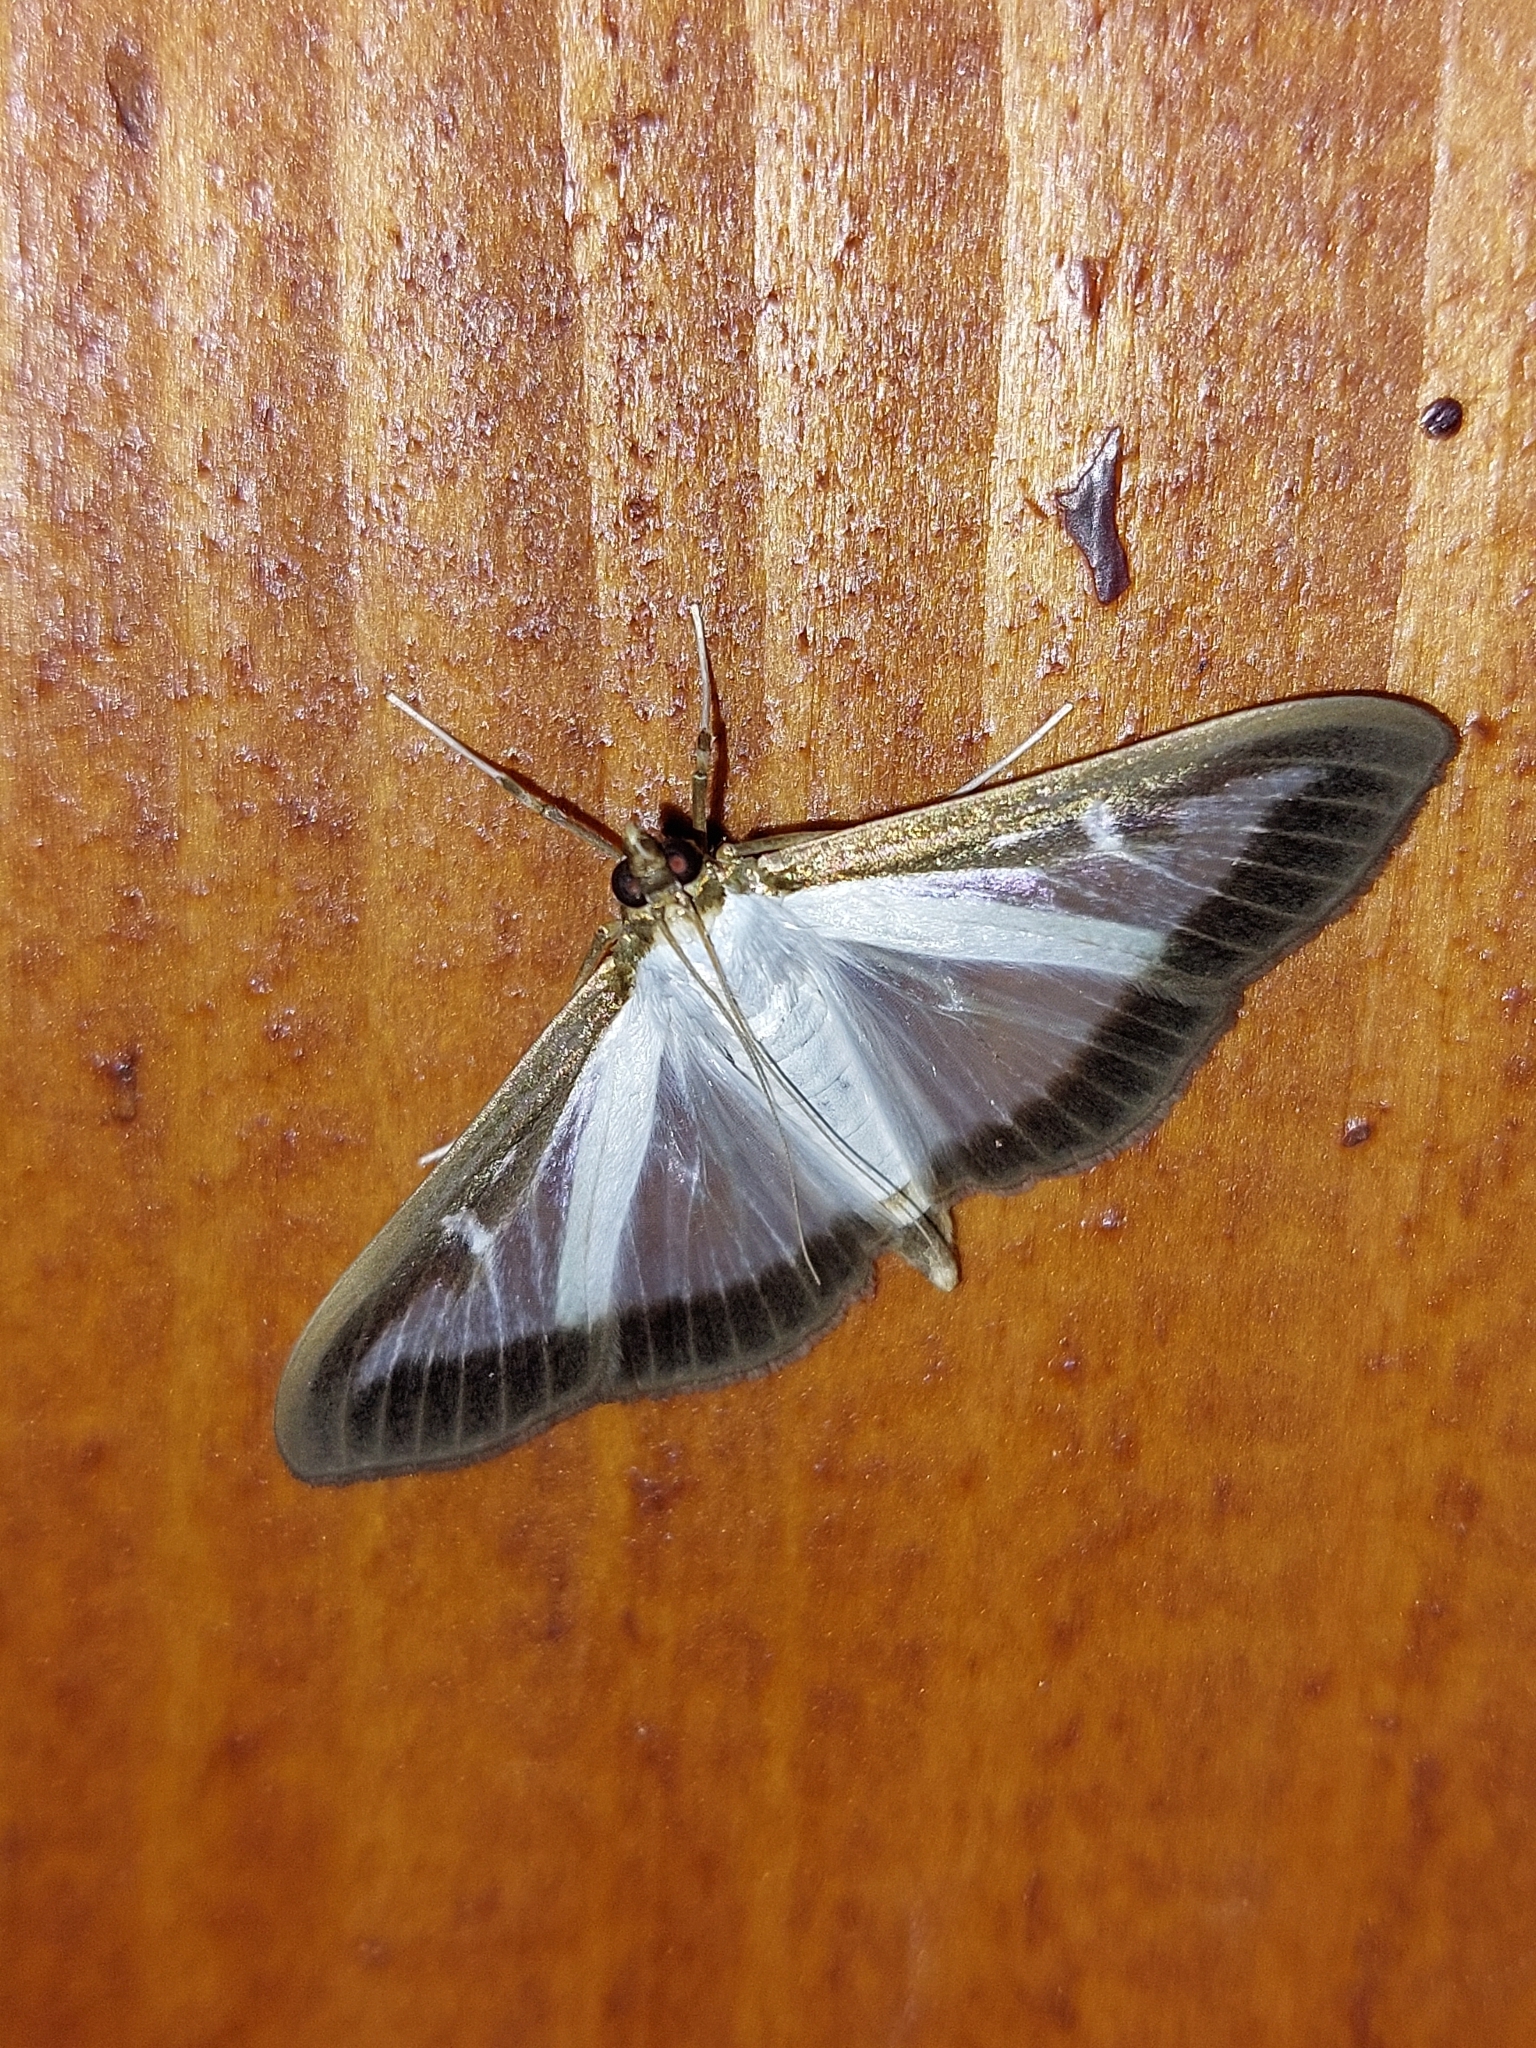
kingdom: Animalia
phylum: Arthropoda
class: Insecta
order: Lepidoptera
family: Crambidae
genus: Cydalima
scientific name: Cydalima perspectalis
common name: Box tree moth
